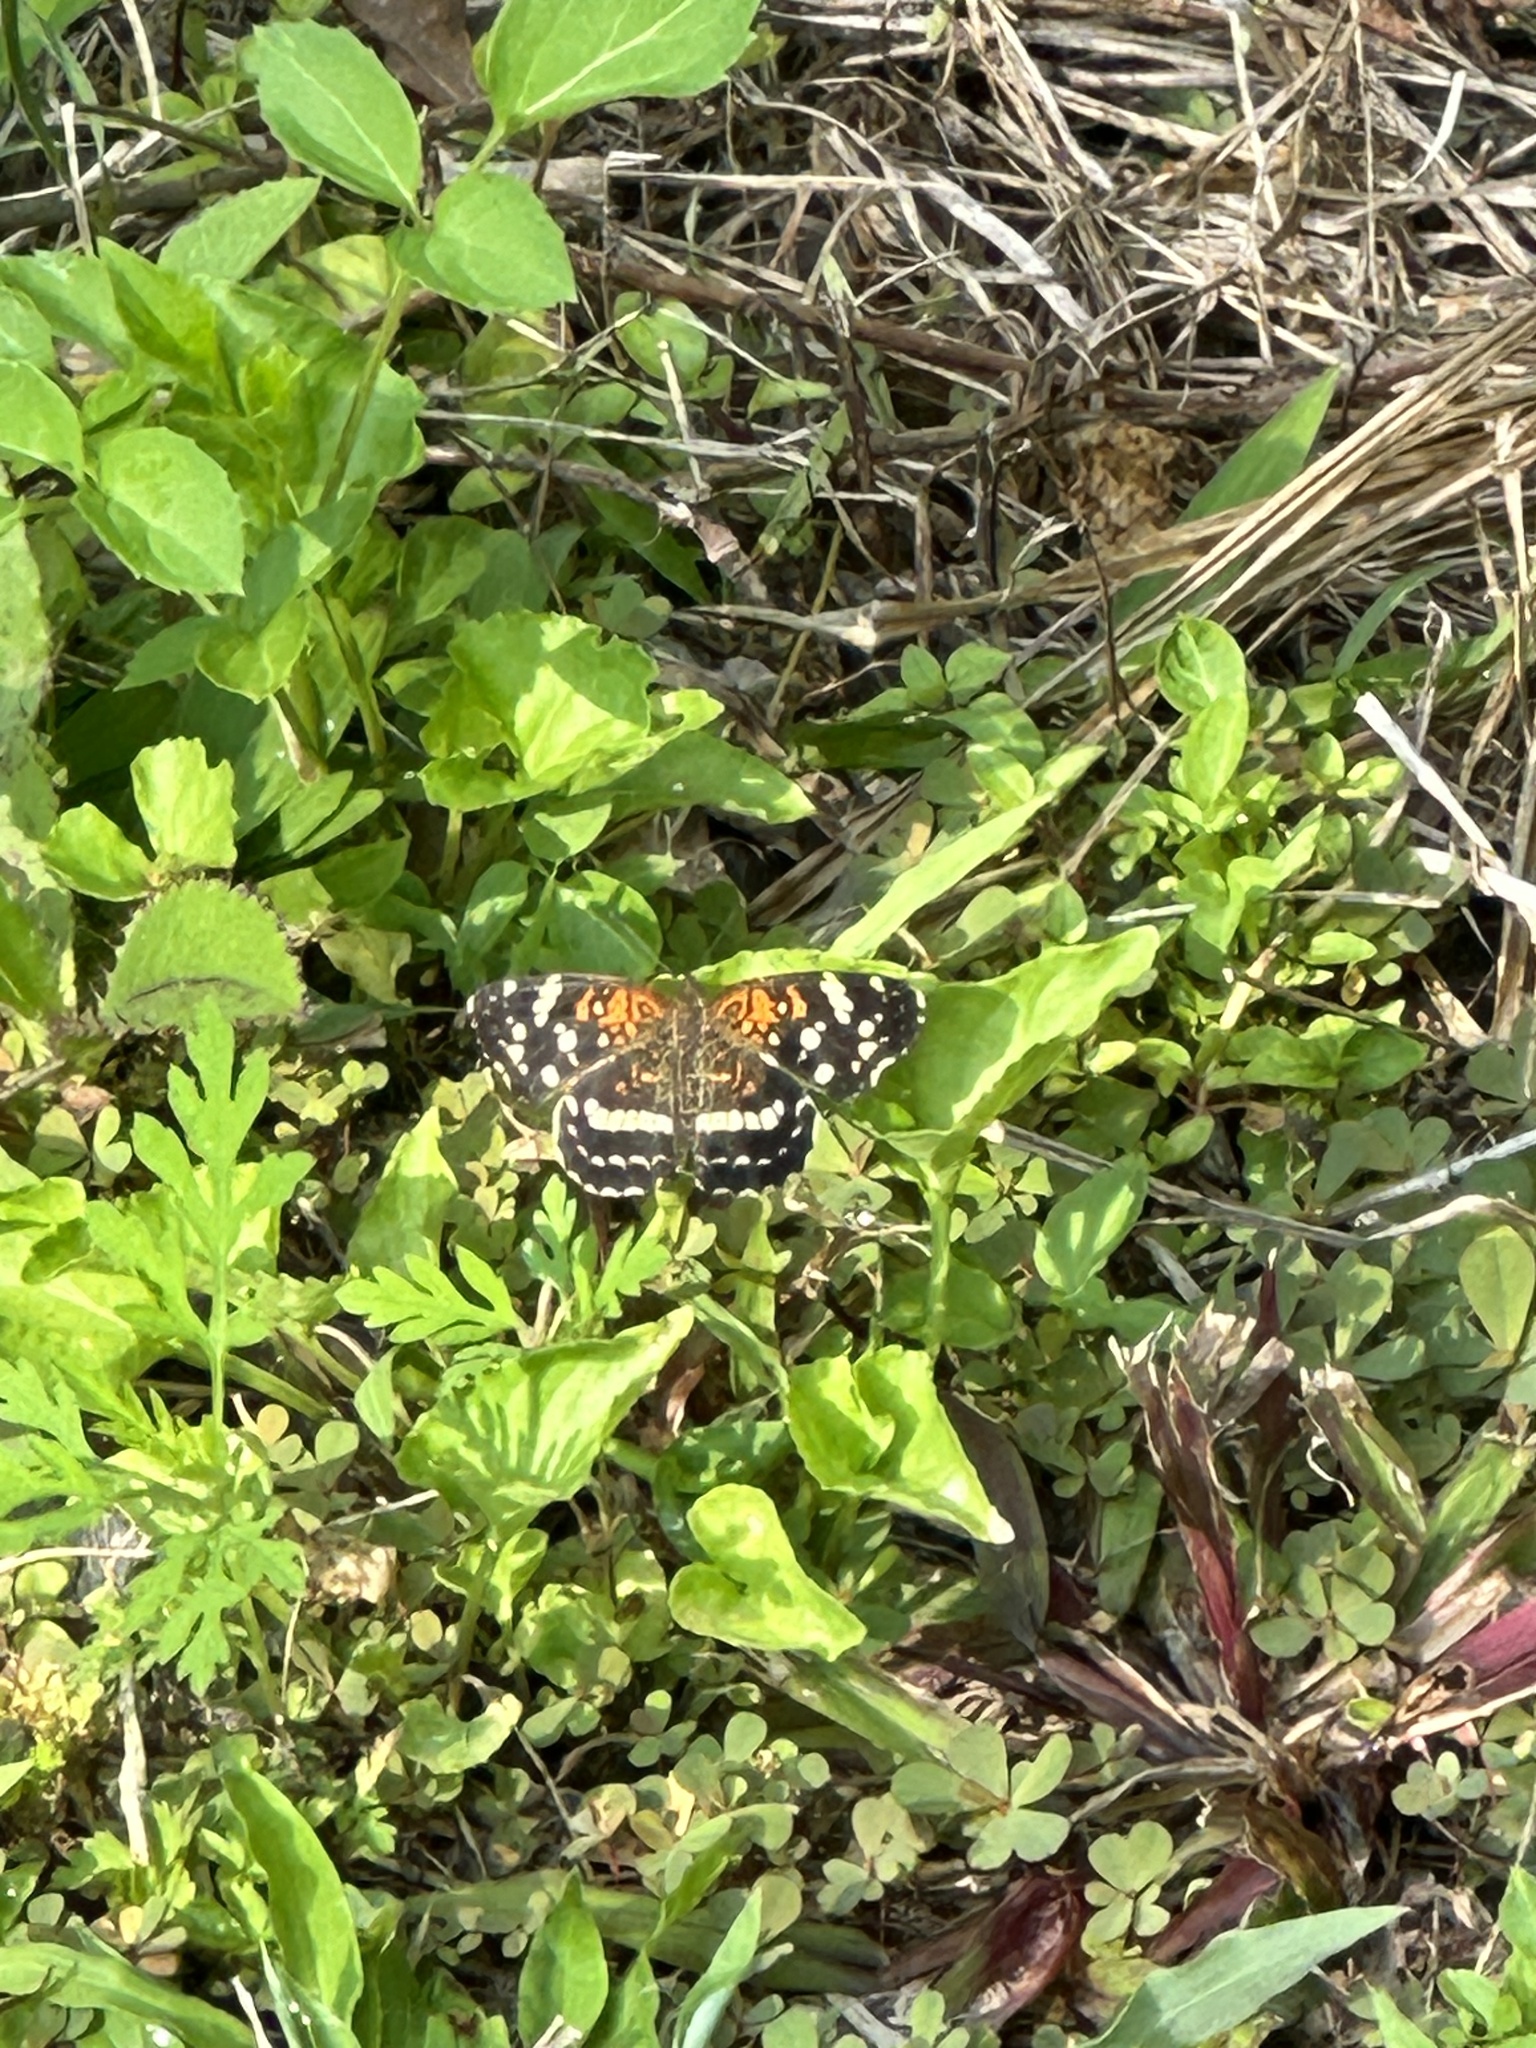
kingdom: Animalia
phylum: Arthropoda
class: Insecta
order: Lepidoptera
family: Nymphalidae
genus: Anthanassa
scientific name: Anthanassa taxana
